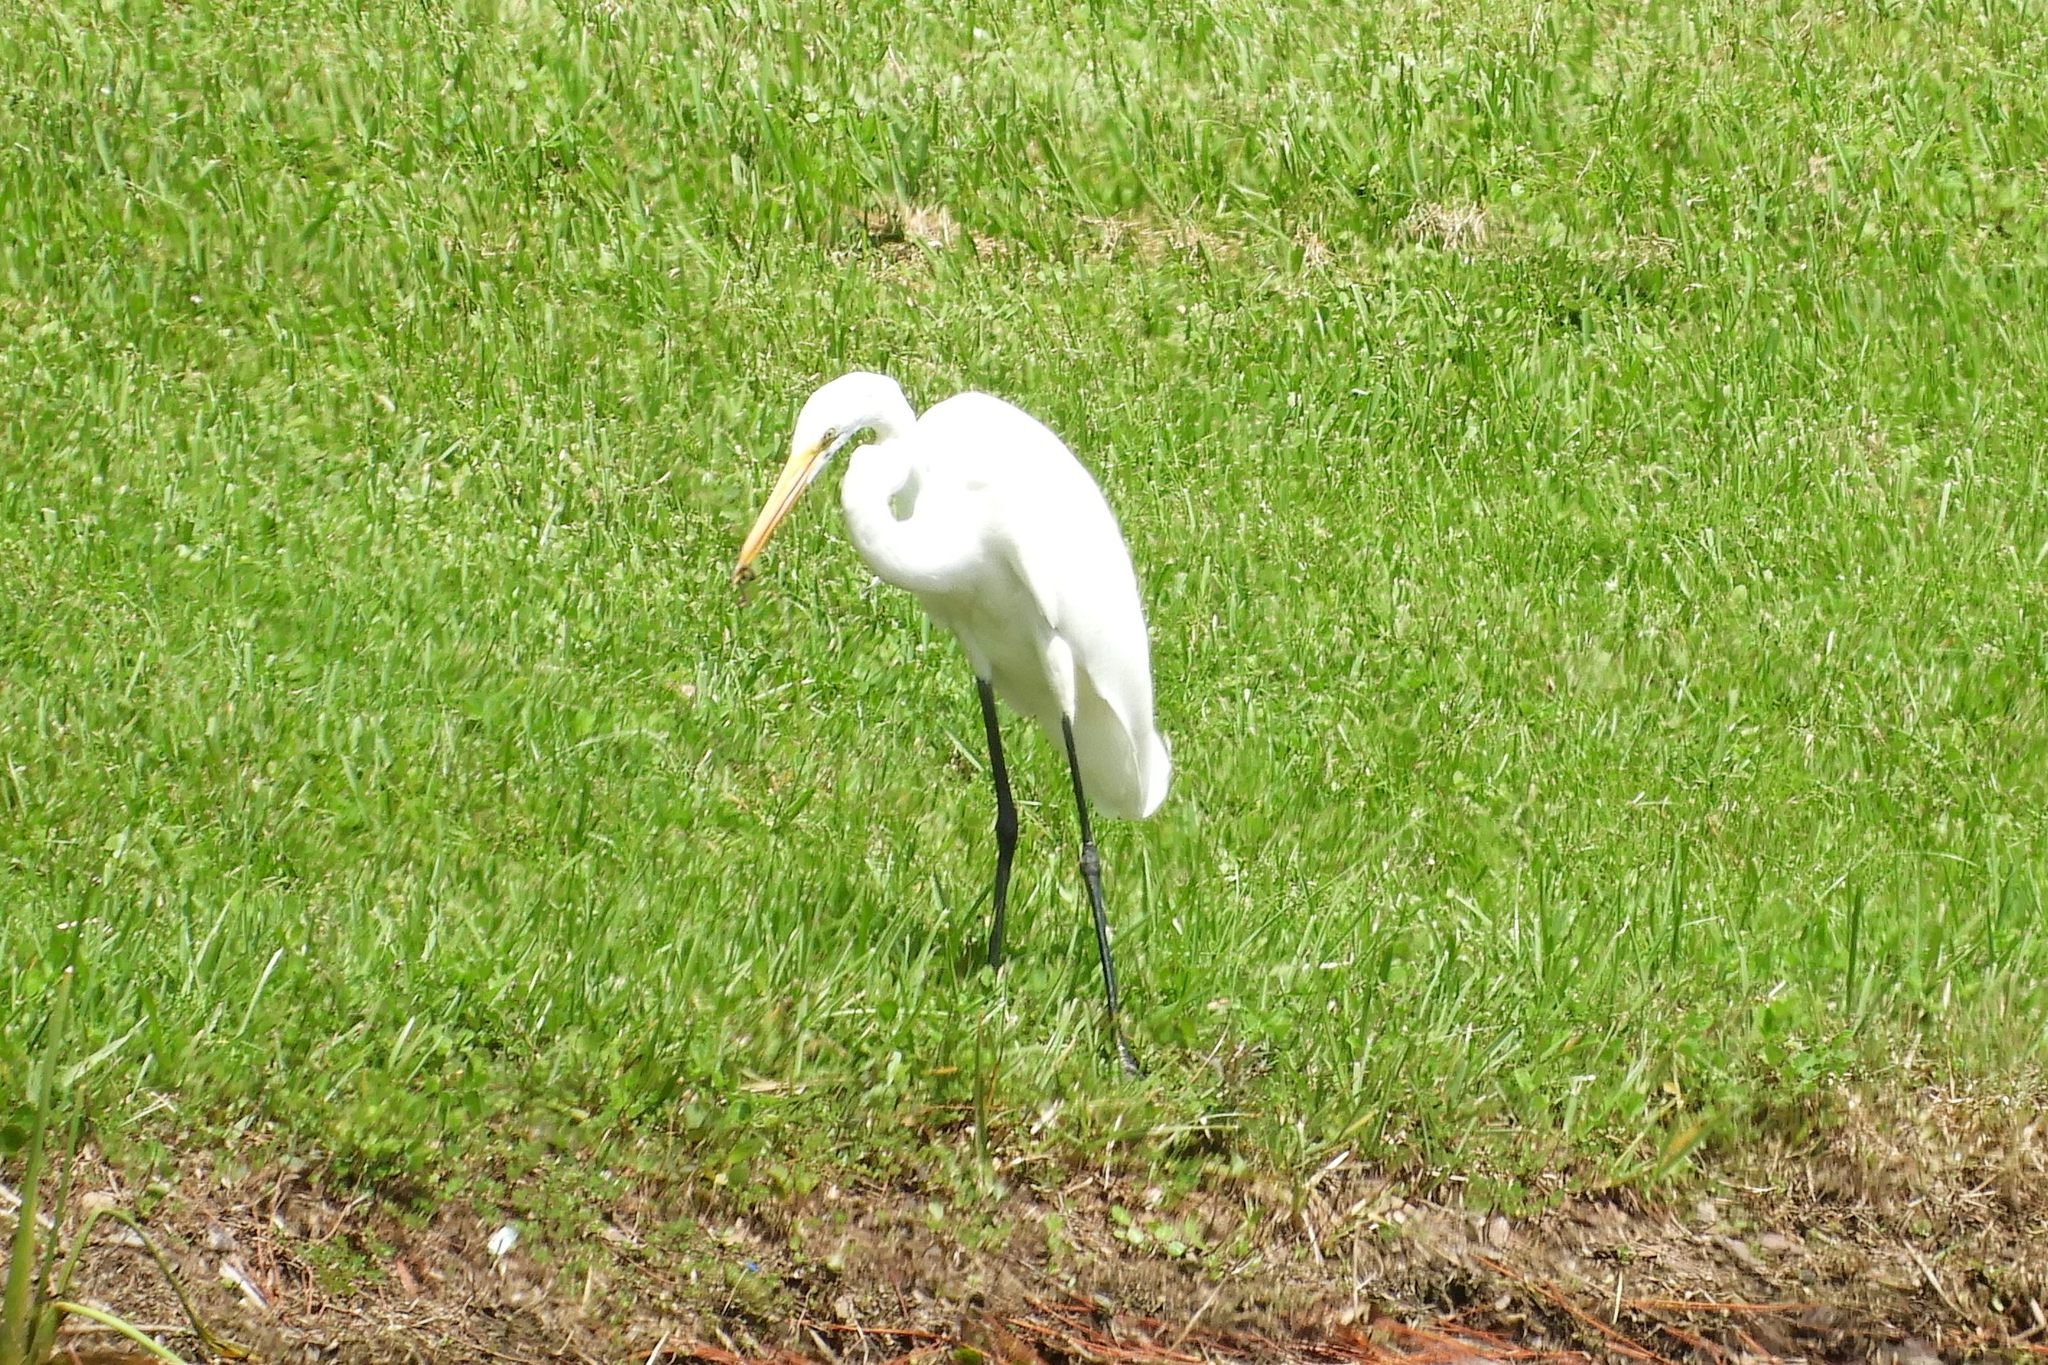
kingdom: Animalia
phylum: Chordata
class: Aves
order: Pelecaniformes
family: Ardeidae
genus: Ardea
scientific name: Ardea alba
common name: Great egret
